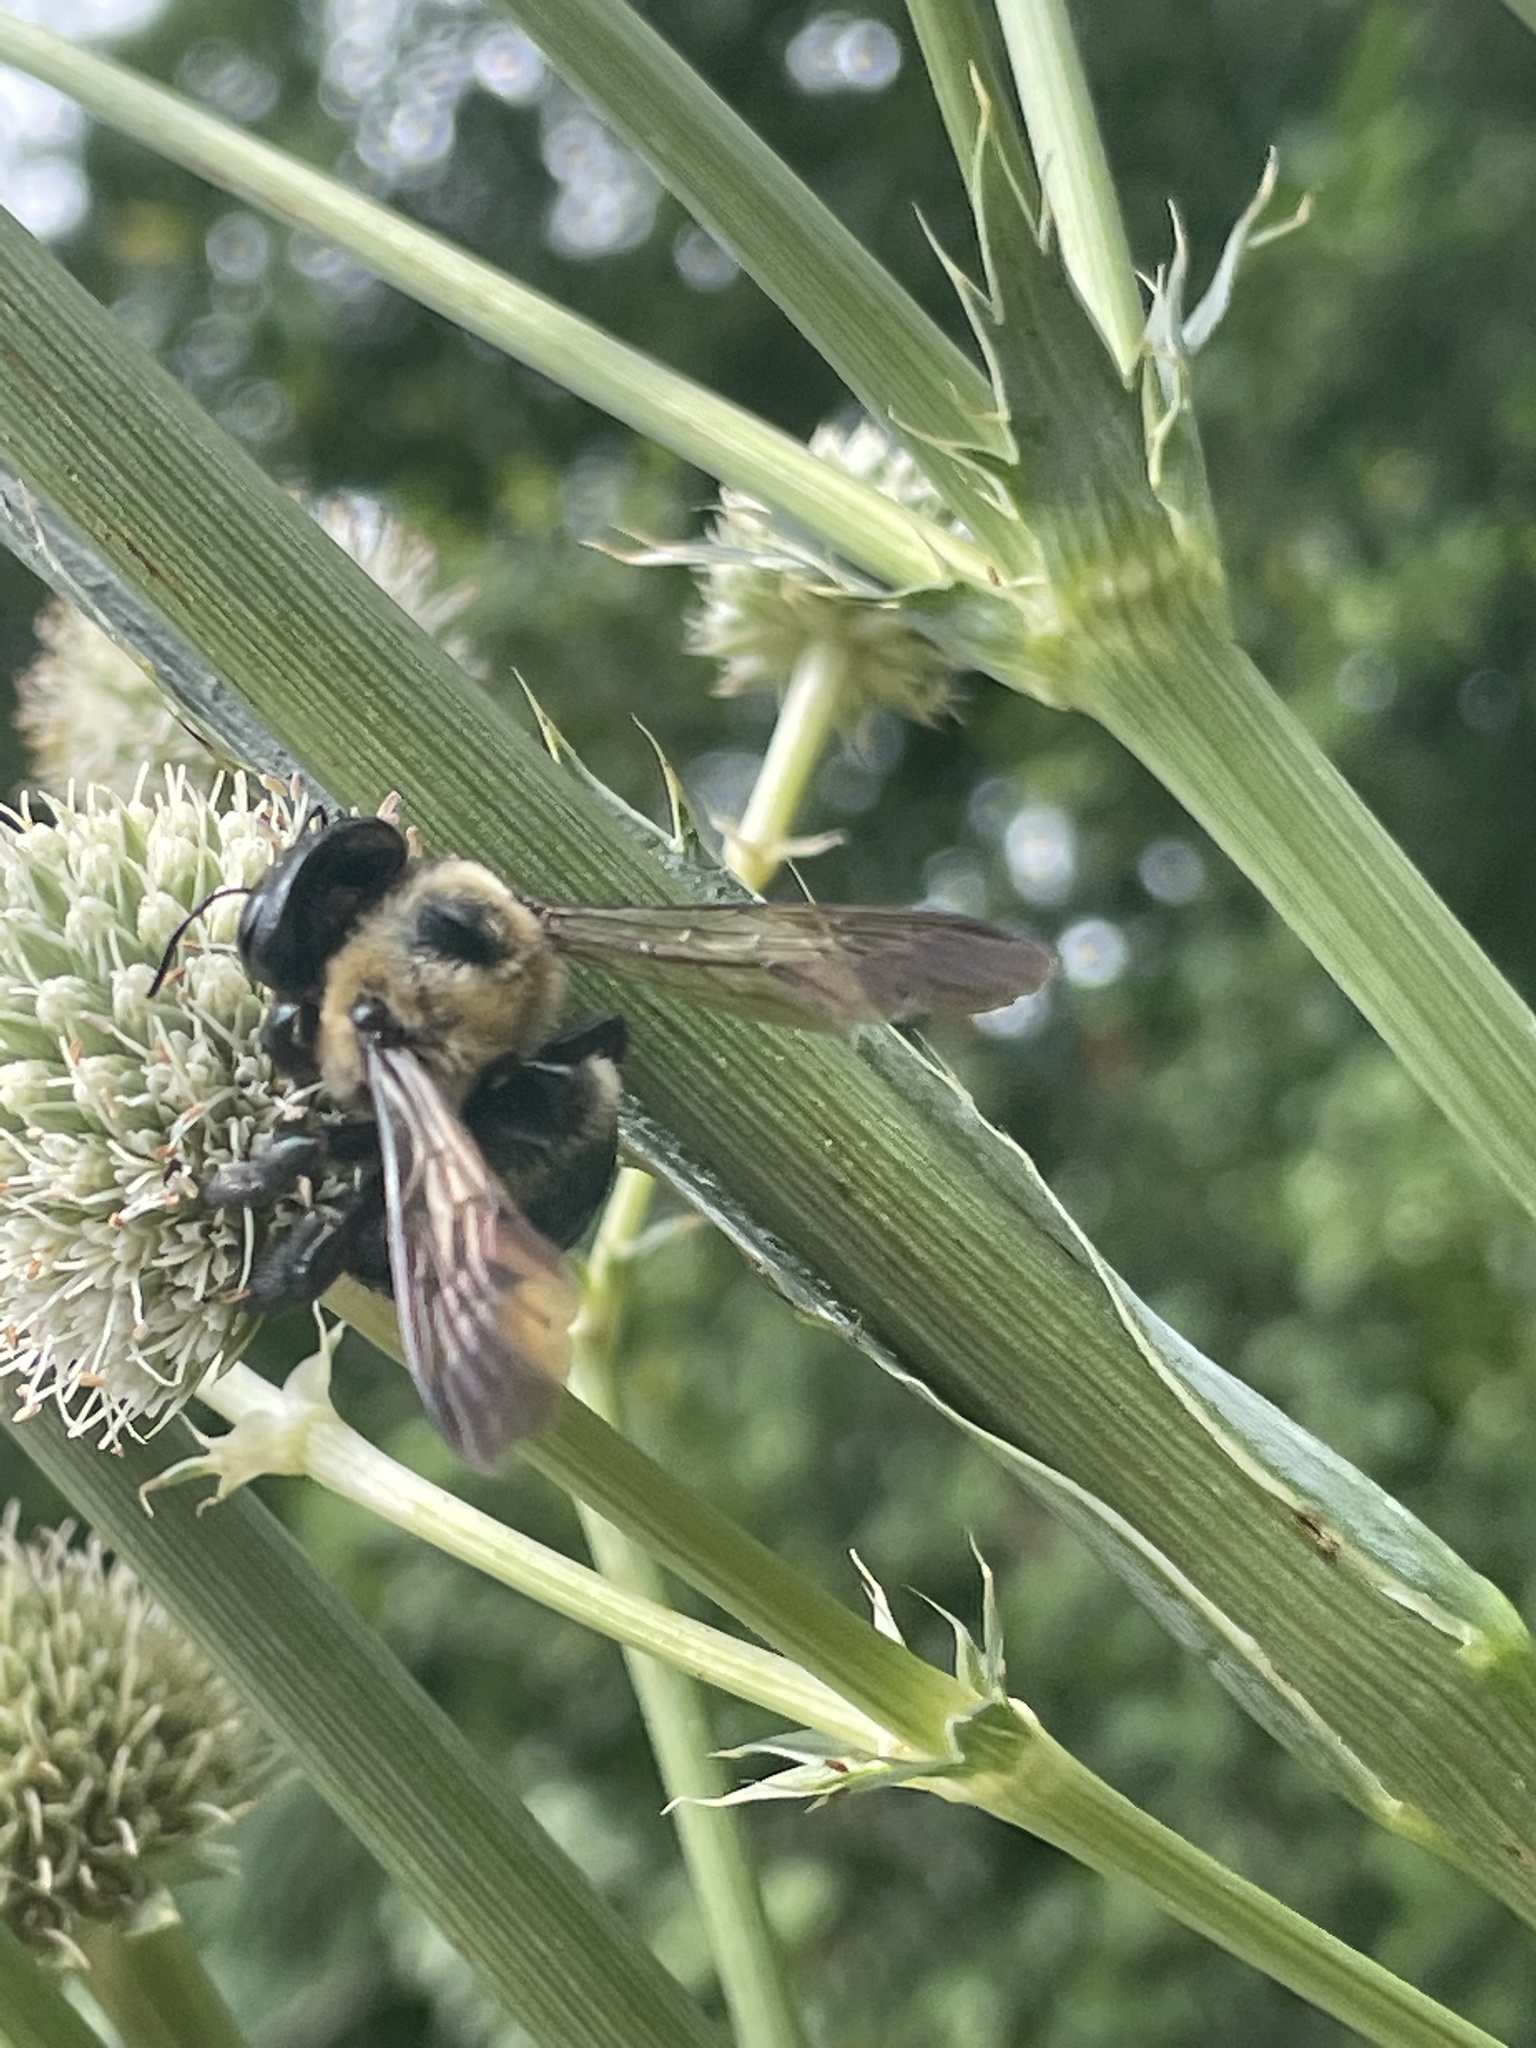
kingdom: Animalia
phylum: Arthropoda
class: Insecta
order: Hymenoptera
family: Apidae
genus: Xylocopa
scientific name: Xylocopa virginica
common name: Carpenter bee
